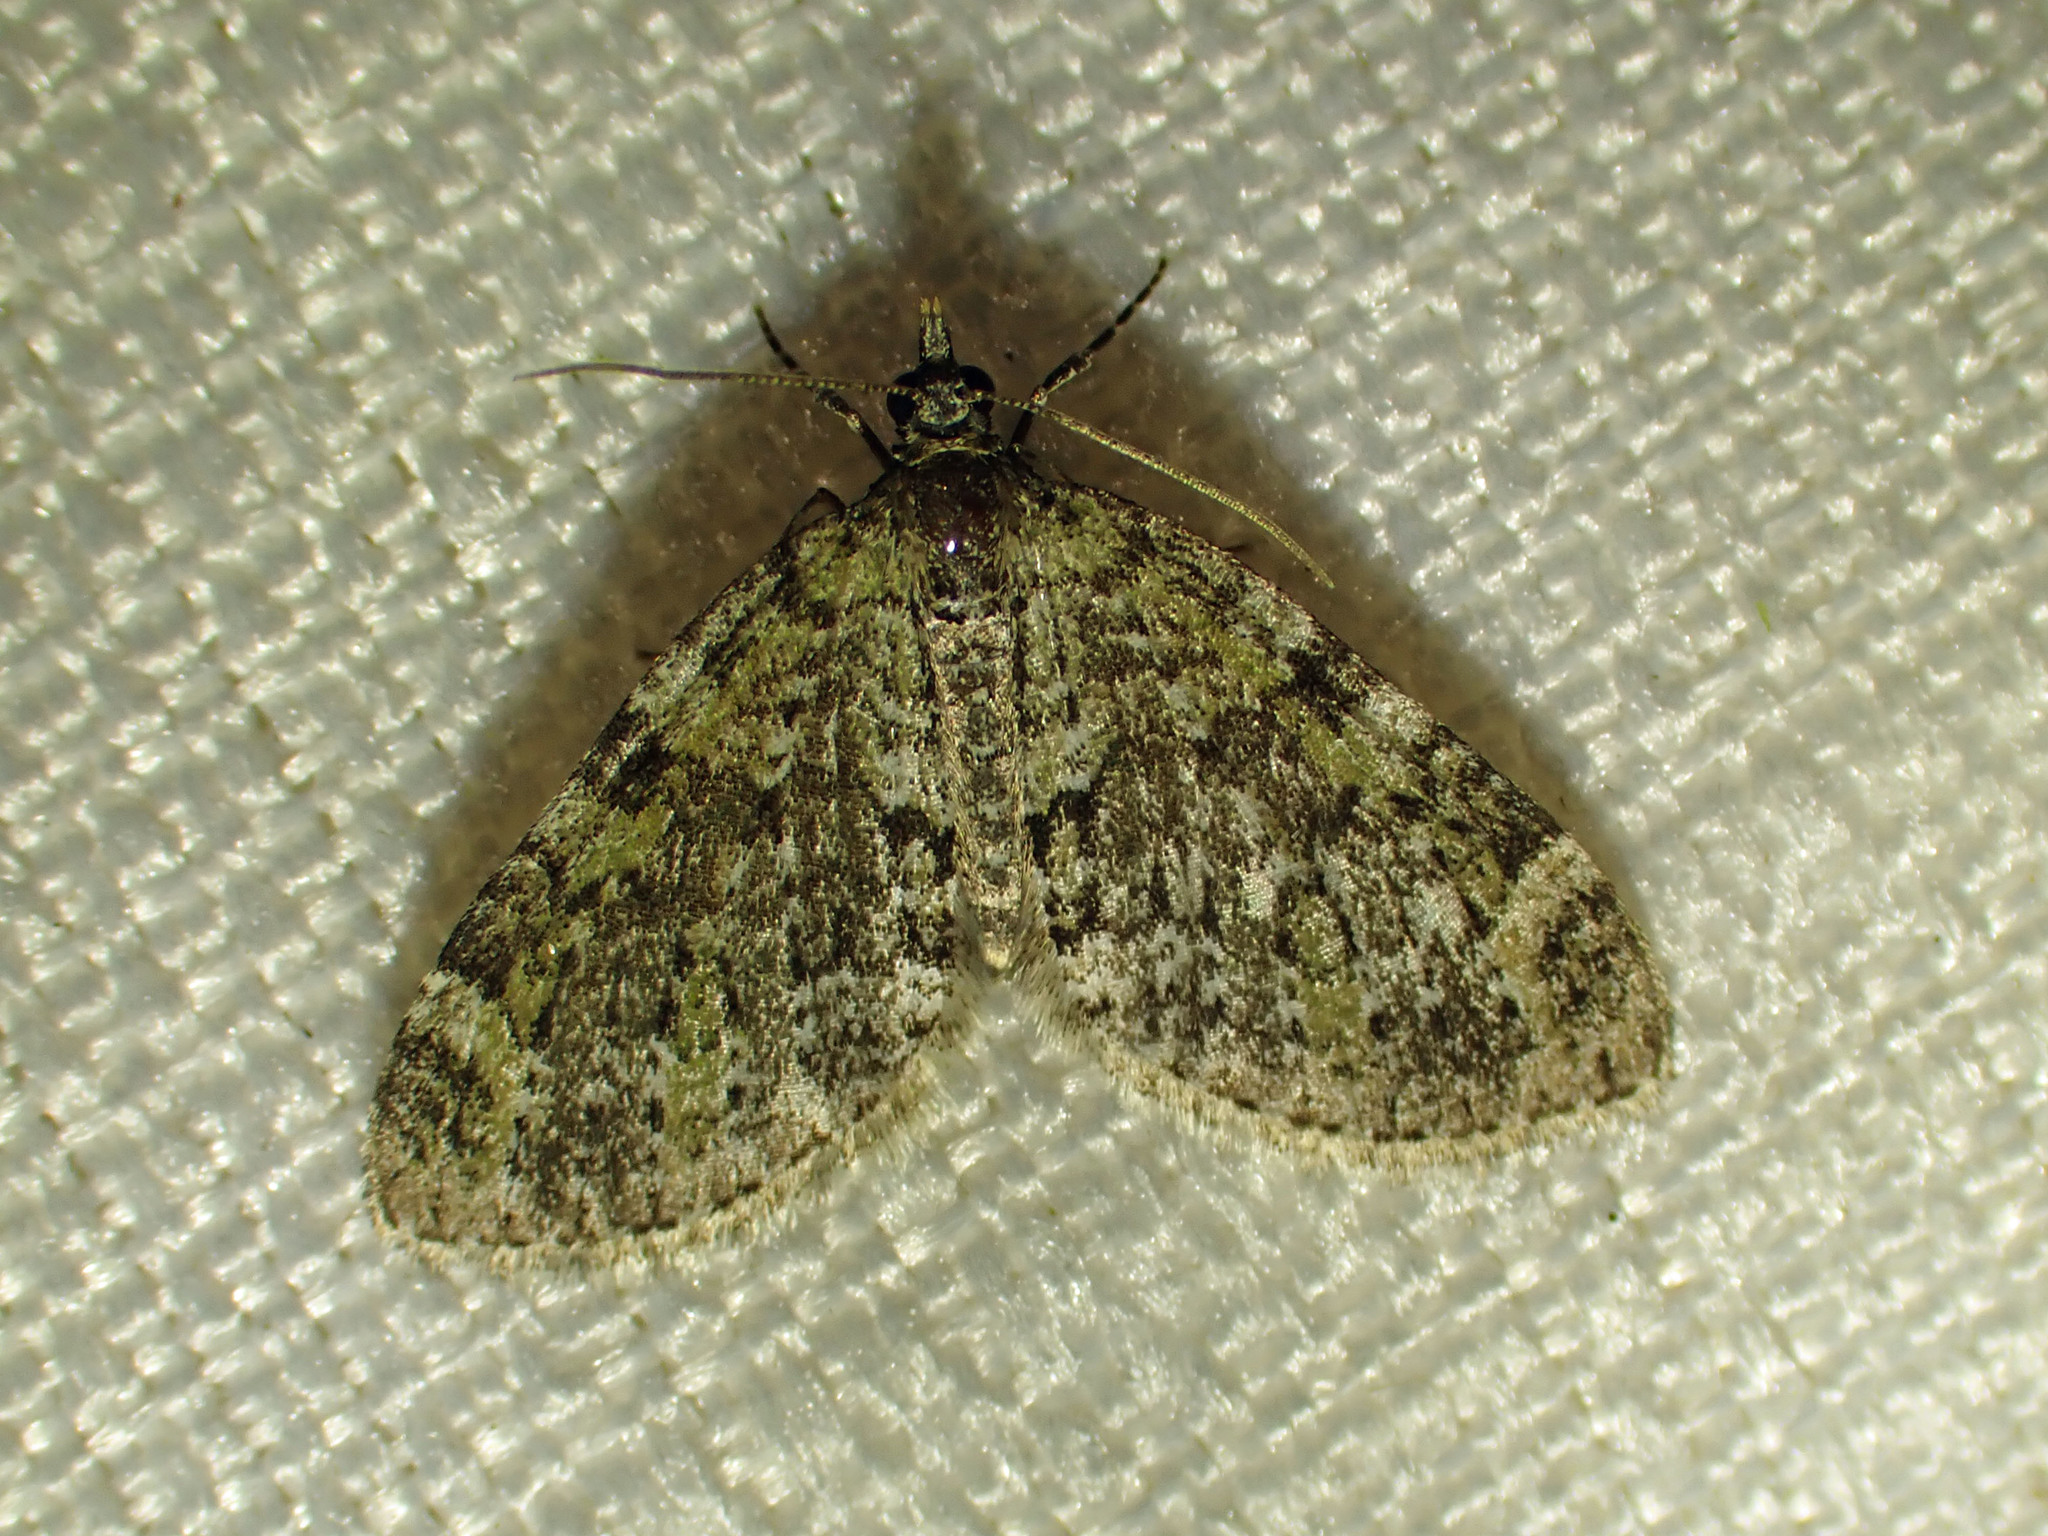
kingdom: Animalia
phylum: Arthropoda
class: Insecta
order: Lepidoptera
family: Geometridae
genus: Acasis
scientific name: Acasis viridata
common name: Olive-and-black carpet moth
